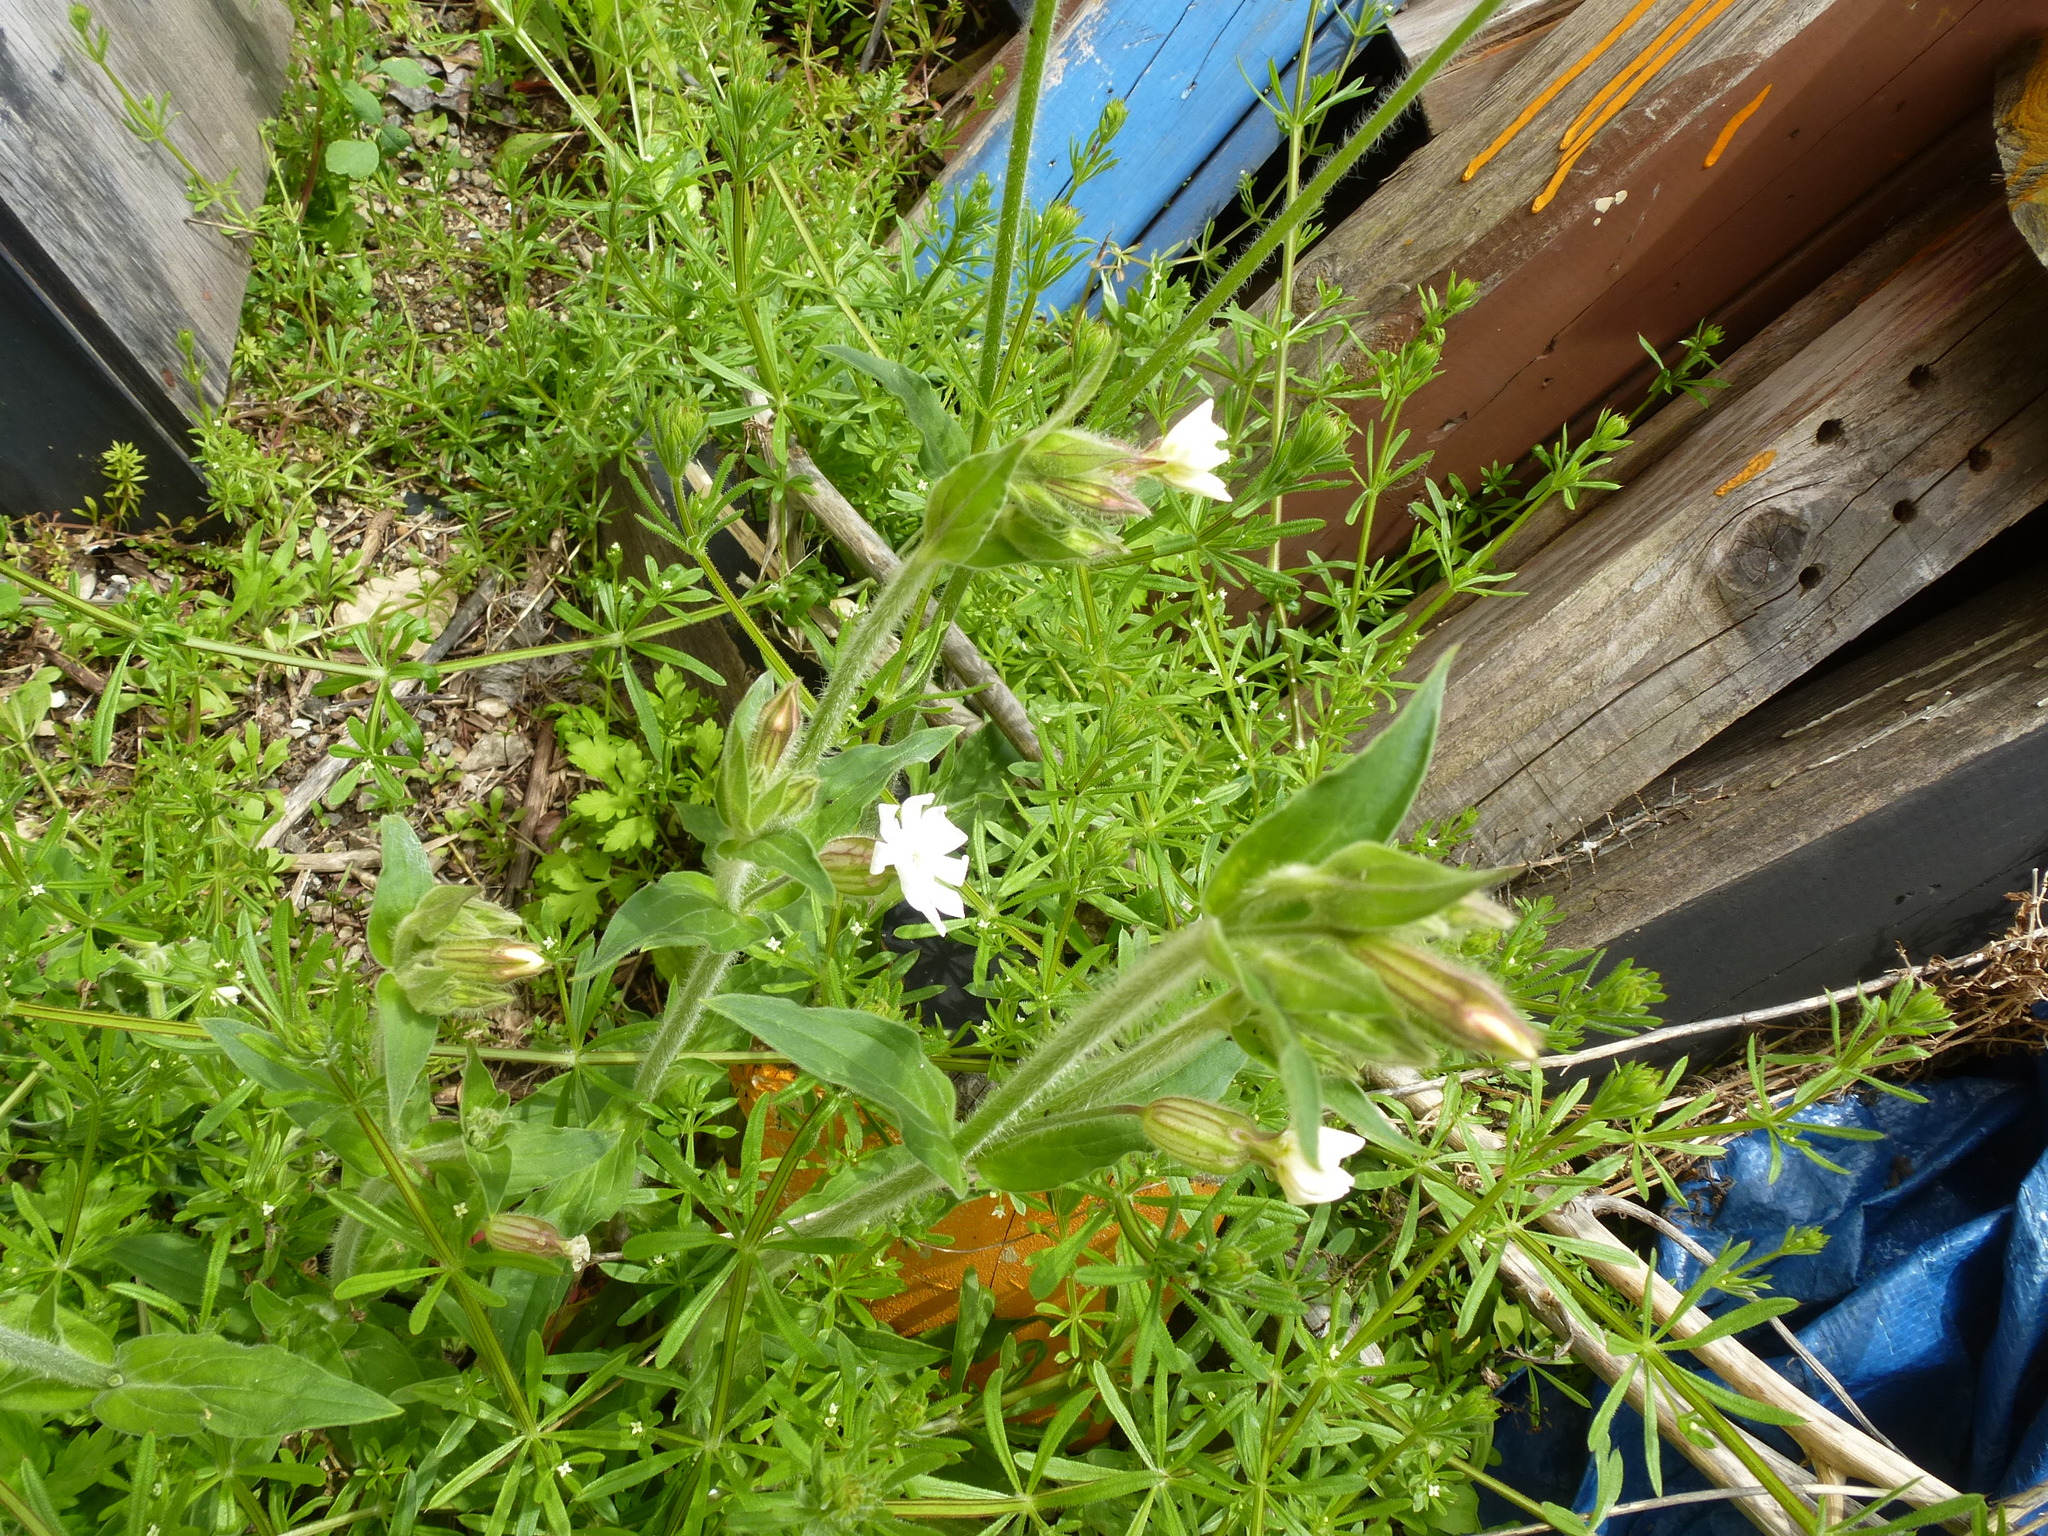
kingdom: Plantae
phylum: Tracheophyta
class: Magnoliopsida
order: Caryophyllales
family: Caryophyllaceae
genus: Silene
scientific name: Silene latifolia
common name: White campion
